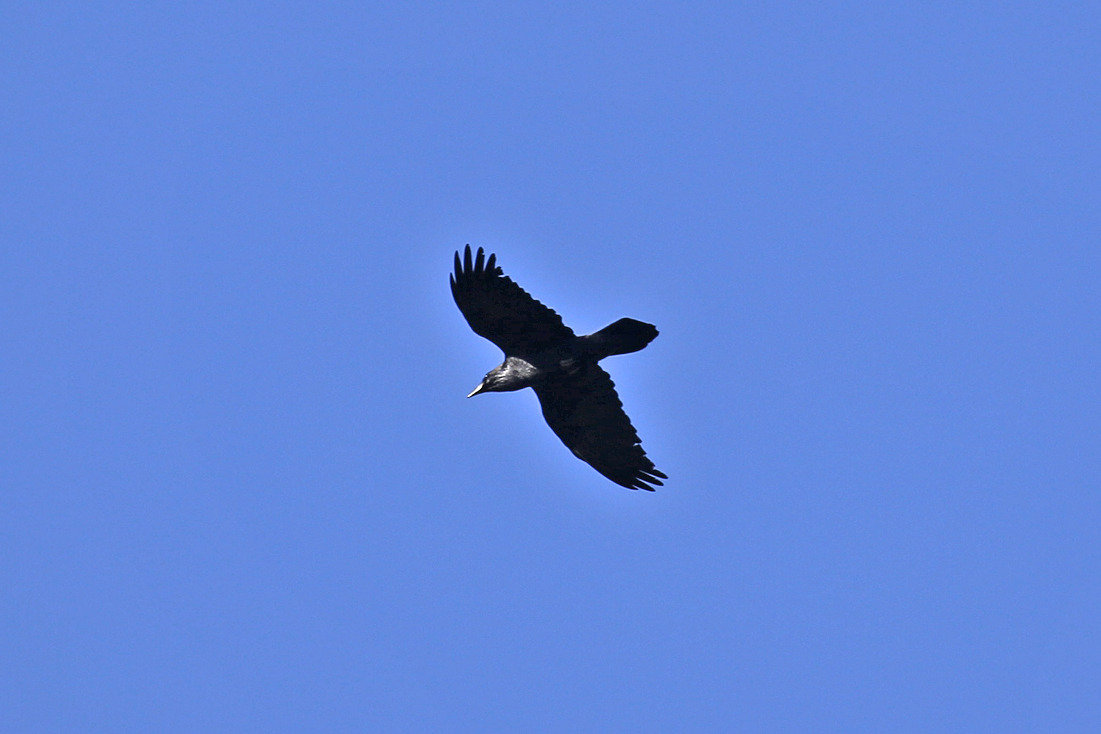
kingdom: Animalia
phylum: Chordata
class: Aves
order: Passeriformes
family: Corvidae
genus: Corvus
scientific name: Corvus corax
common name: Common raven
